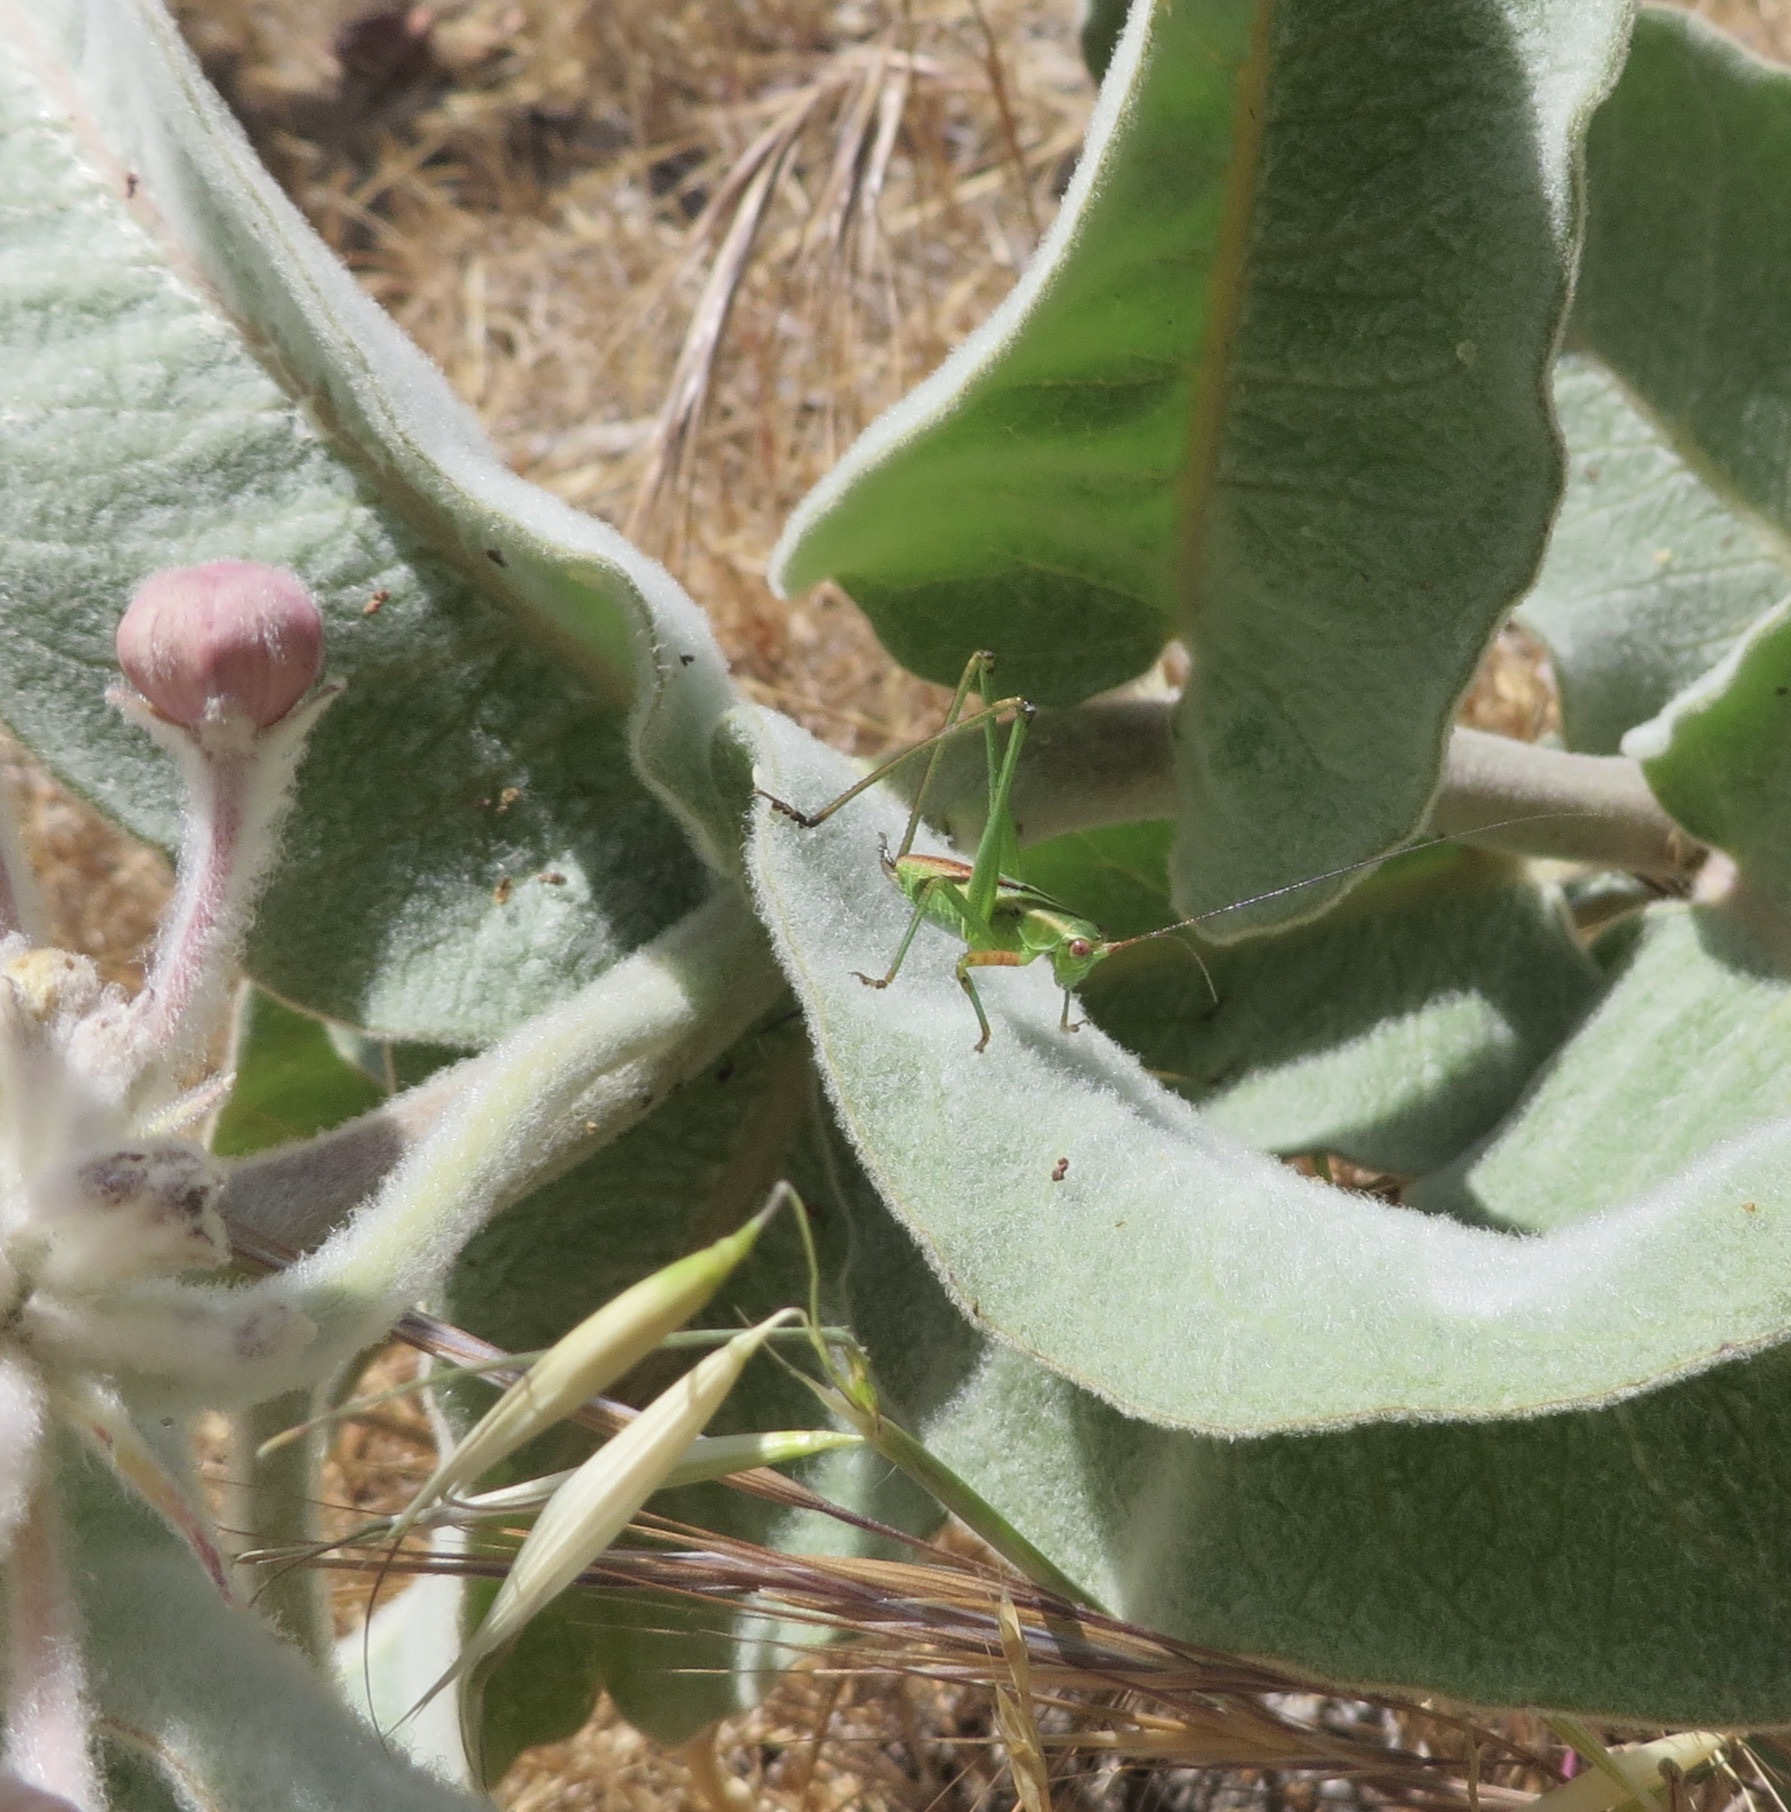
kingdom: Animalia
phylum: Arthropoda
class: Insecta
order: Orthoptera
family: Tettigoniidae
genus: Scudderia
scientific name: Scudderia
